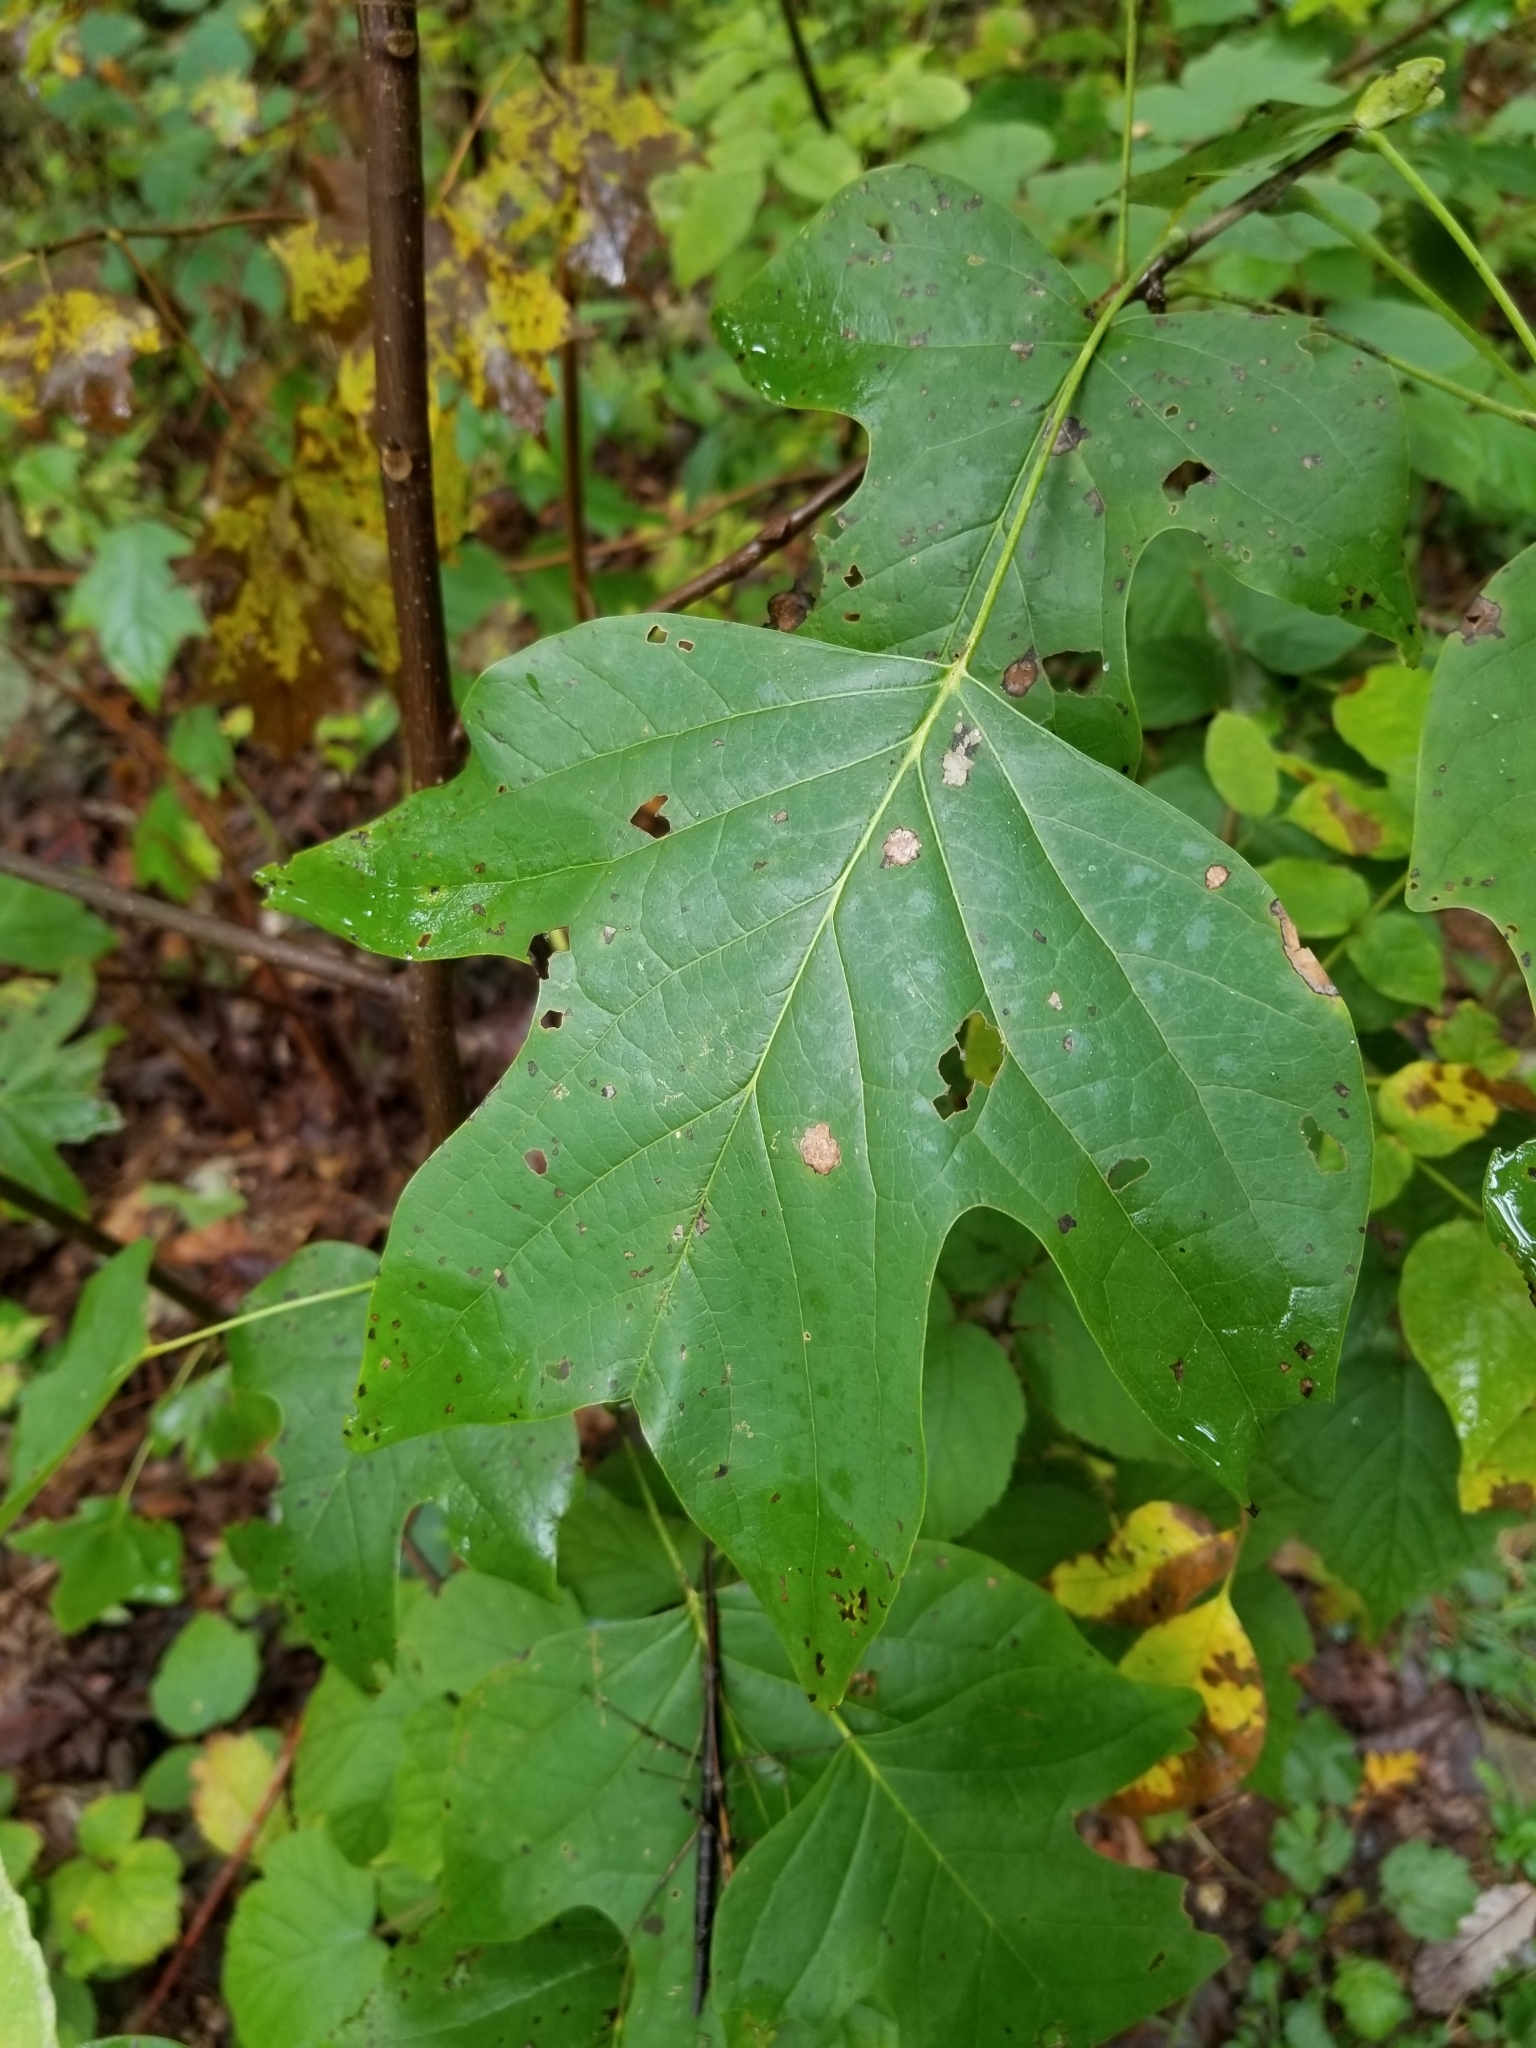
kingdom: Plantae
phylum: Tracheophyta
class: Magnoliopsida
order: Magnoliales
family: Magnoliaceae
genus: Liriodendron
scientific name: Liriodendron tulipifera
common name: Tulip tree
